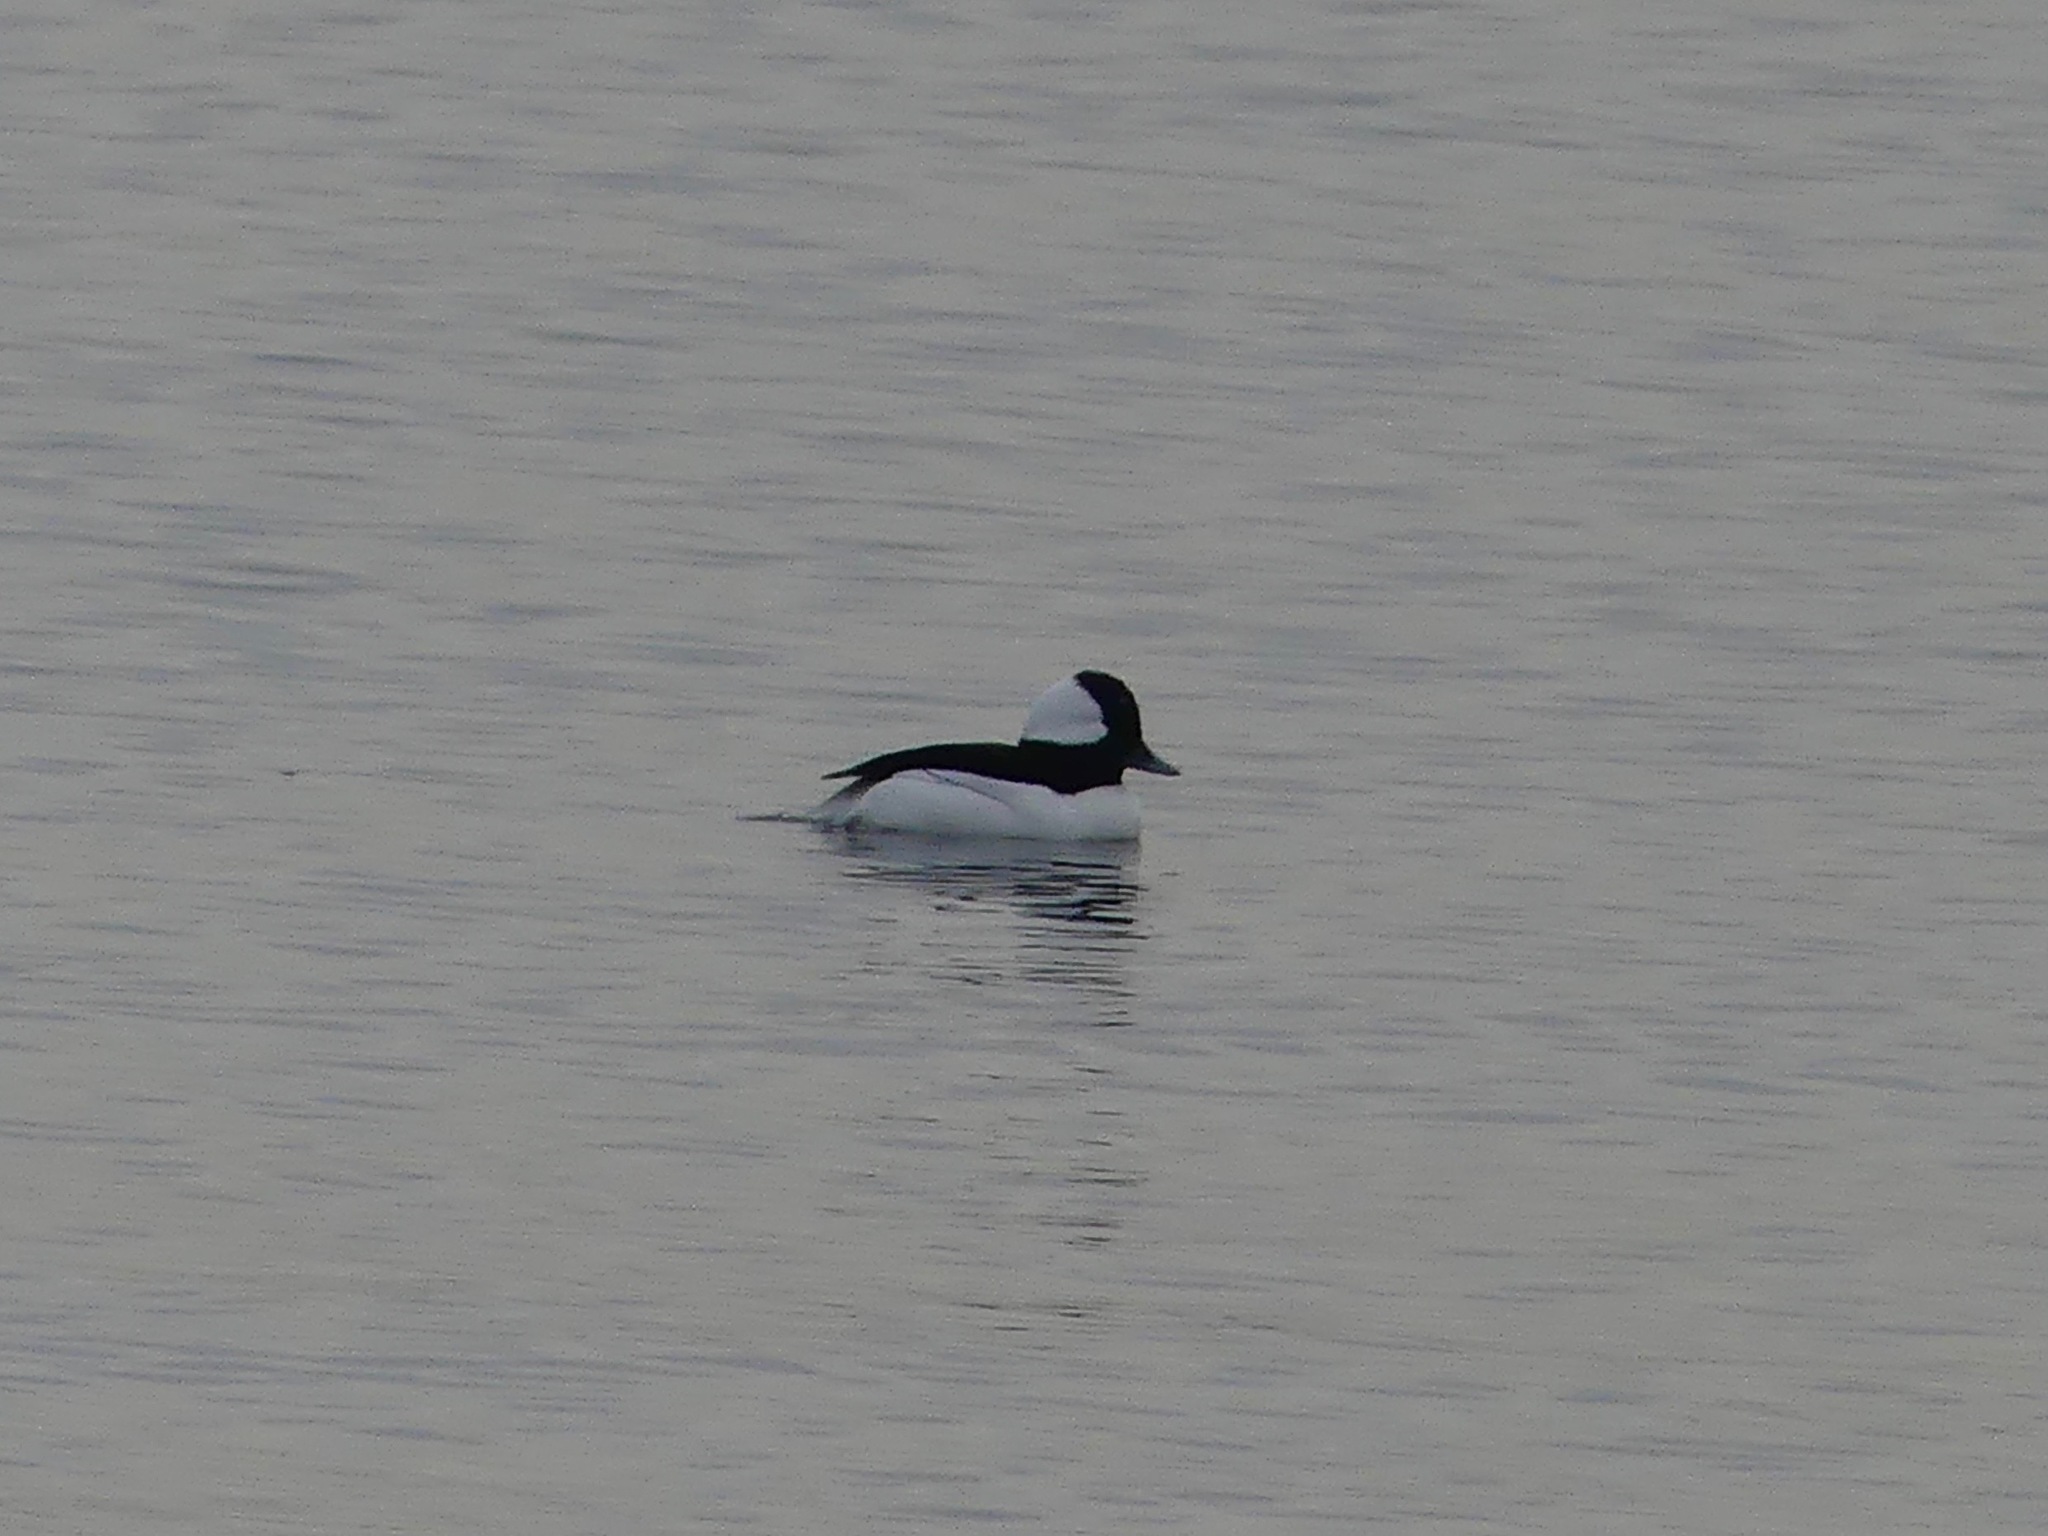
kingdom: Animalia
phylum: Chordata
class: Aves
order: Anseriformes
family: Anatidae
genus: Bucephala
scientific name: Bucephala albeola
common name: Bufflehead
